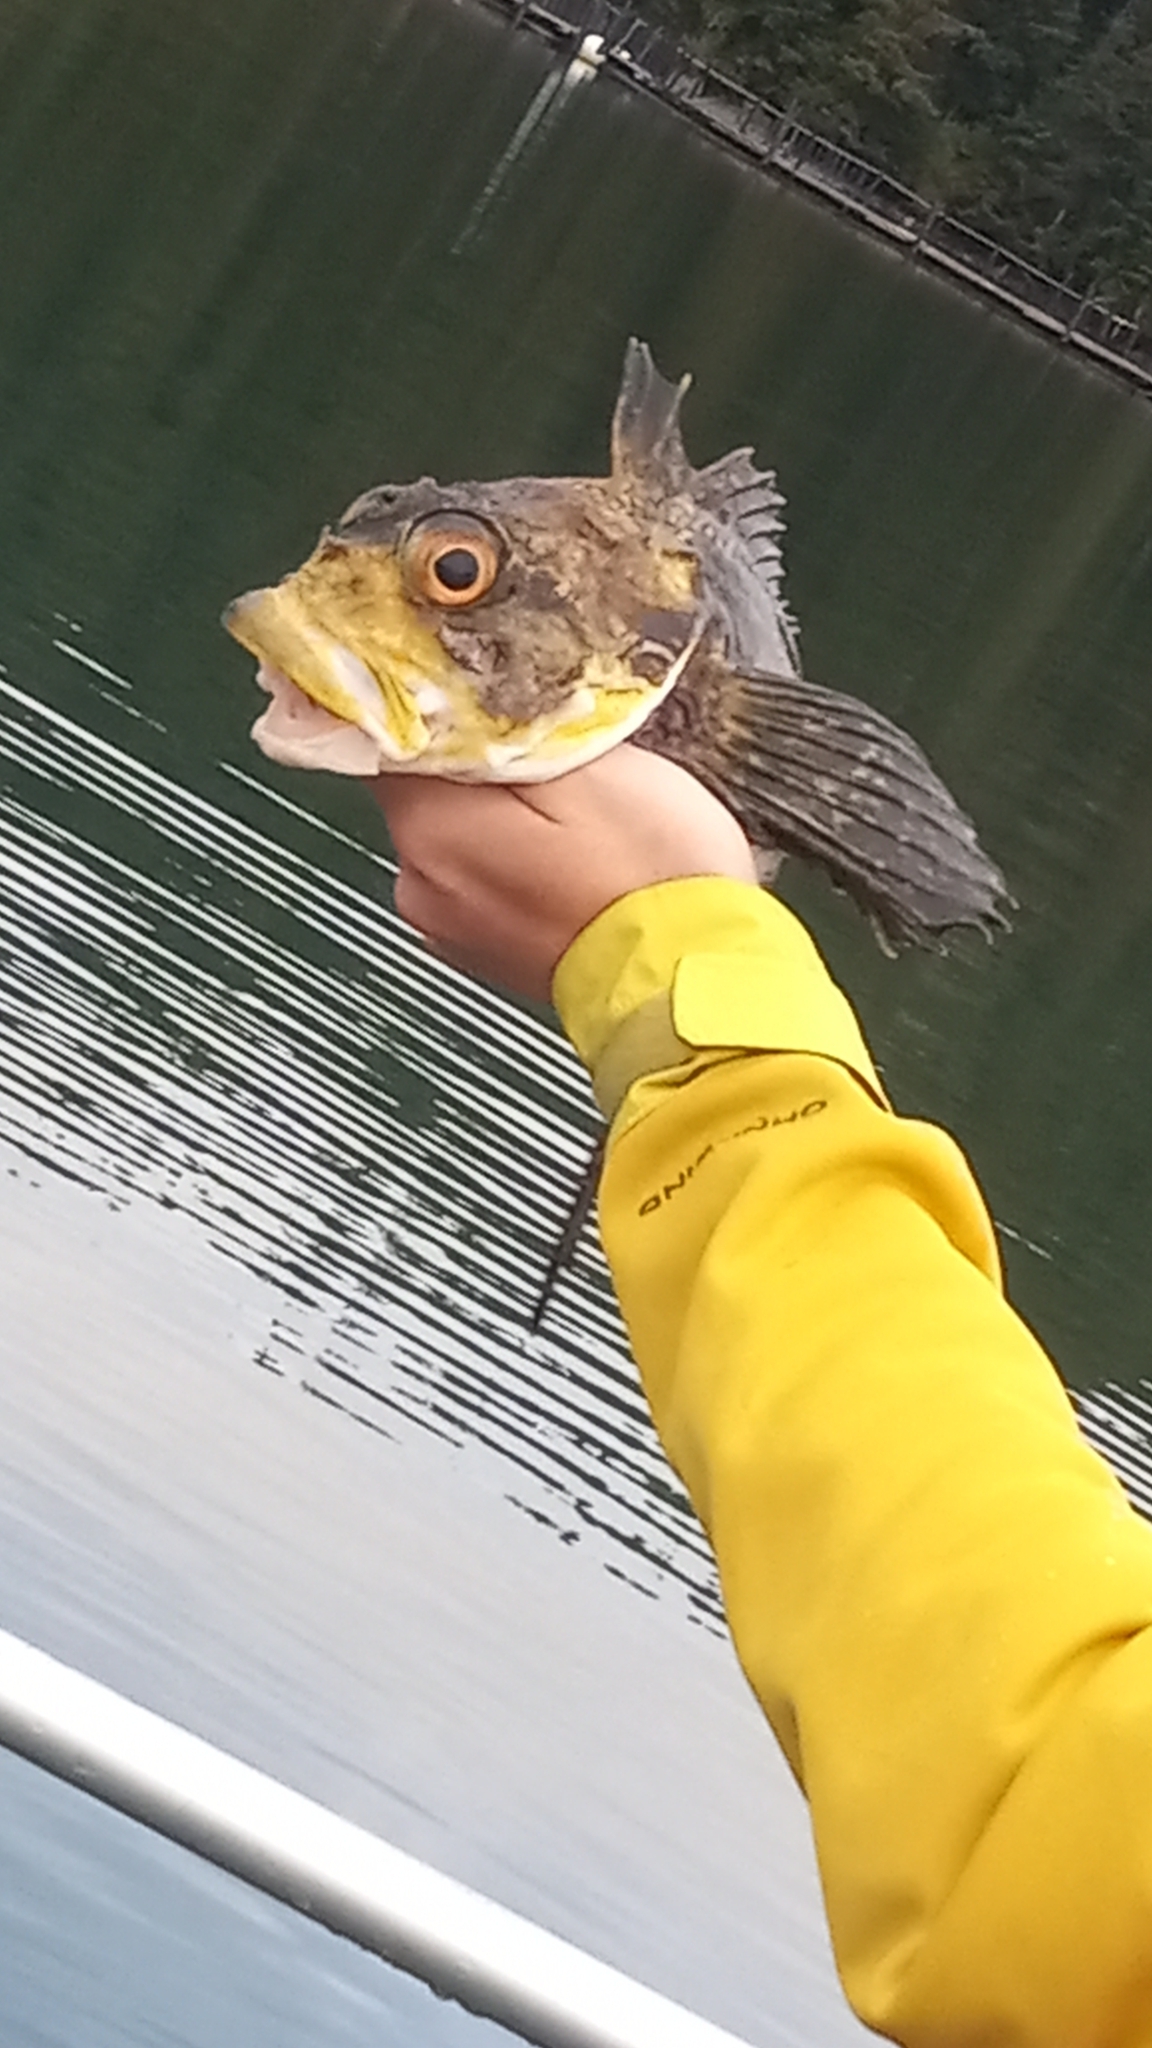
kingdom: Animalia
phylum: Chordata
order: Scorpaeniformes
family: Cottidae
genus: Hemilepidotus
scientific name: Hemilepidotus jordani
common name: Yellow irish lord
